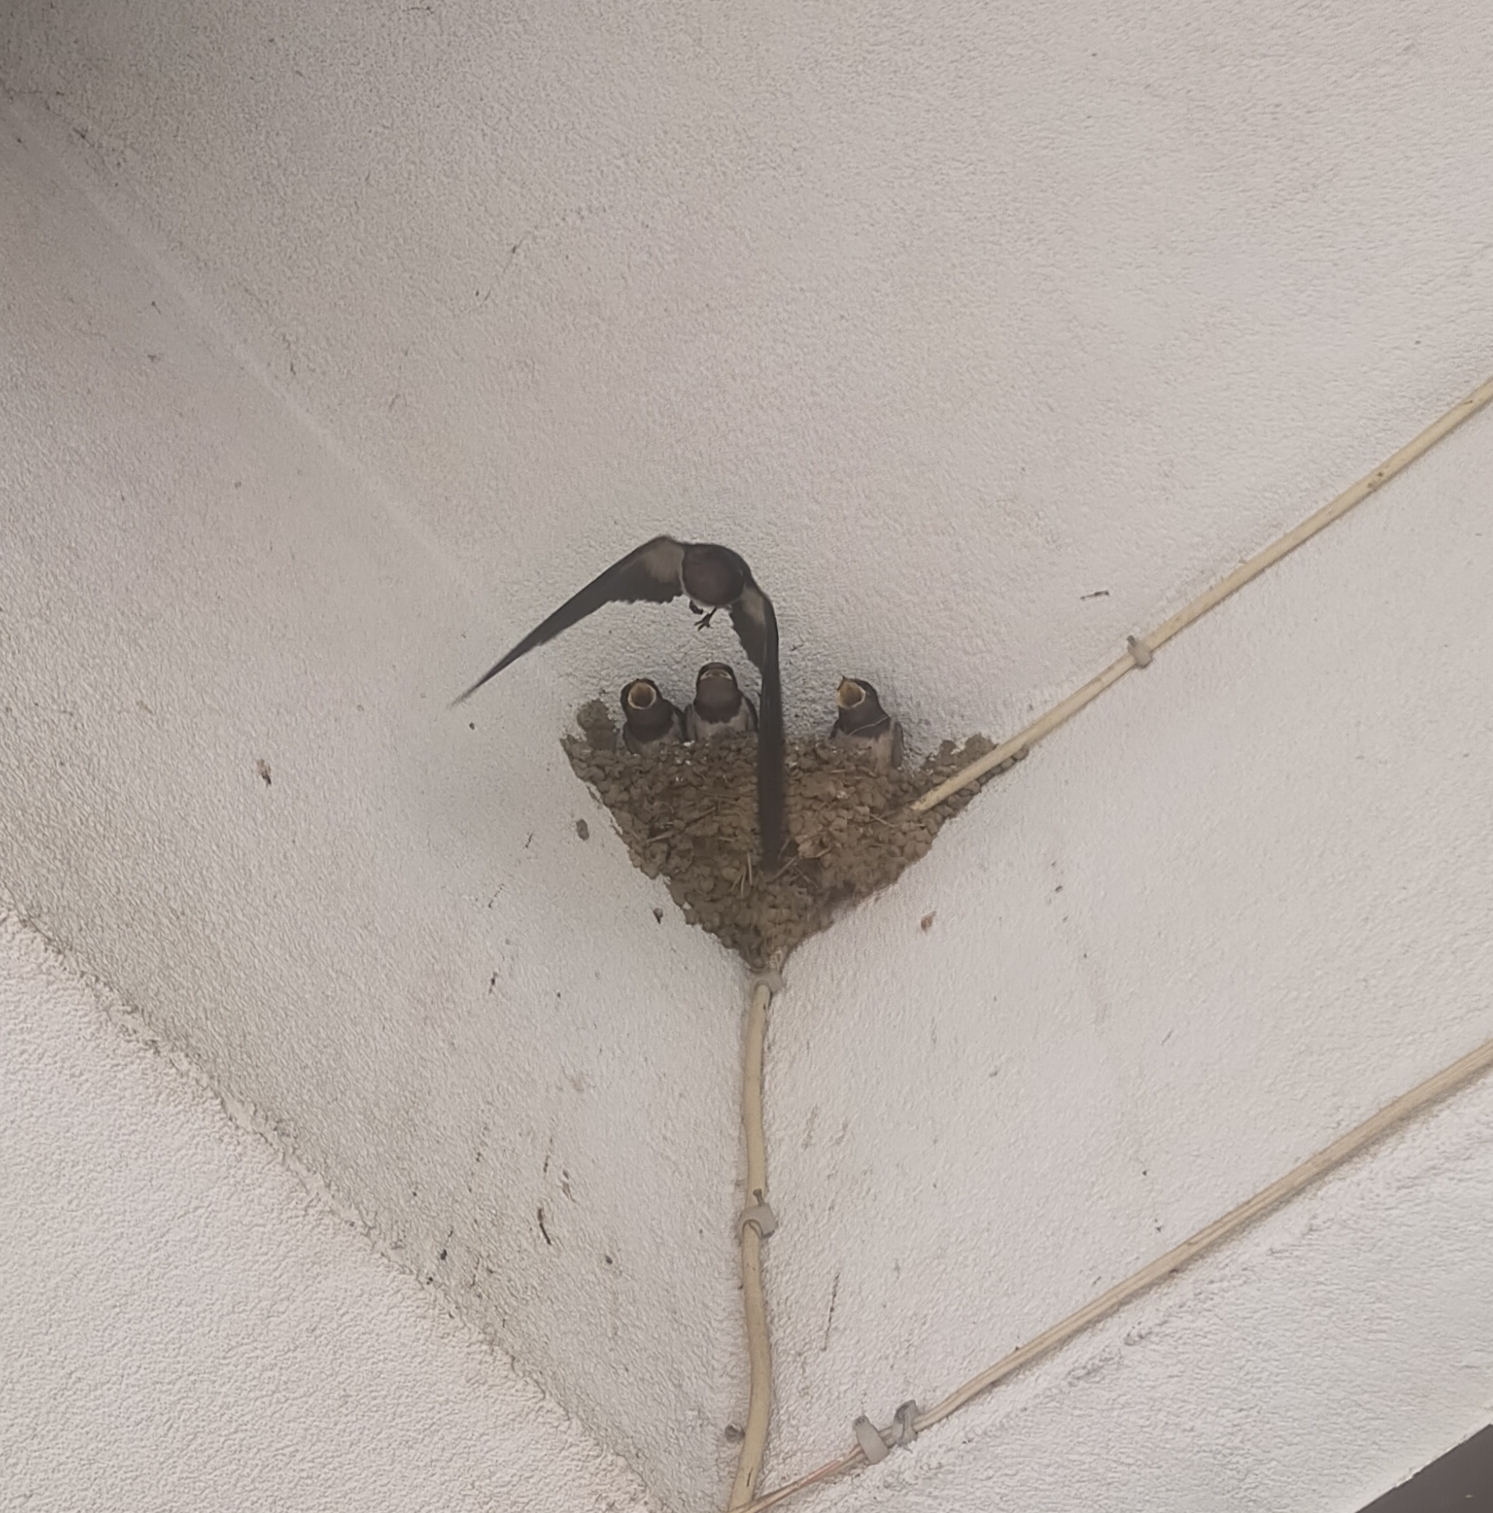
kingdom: Animalia
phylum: Chordata
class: Aves
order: Passeriformes
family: Hirundinidae
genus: Hirundo
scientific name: Hirundo rustica
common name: Barn swallow
